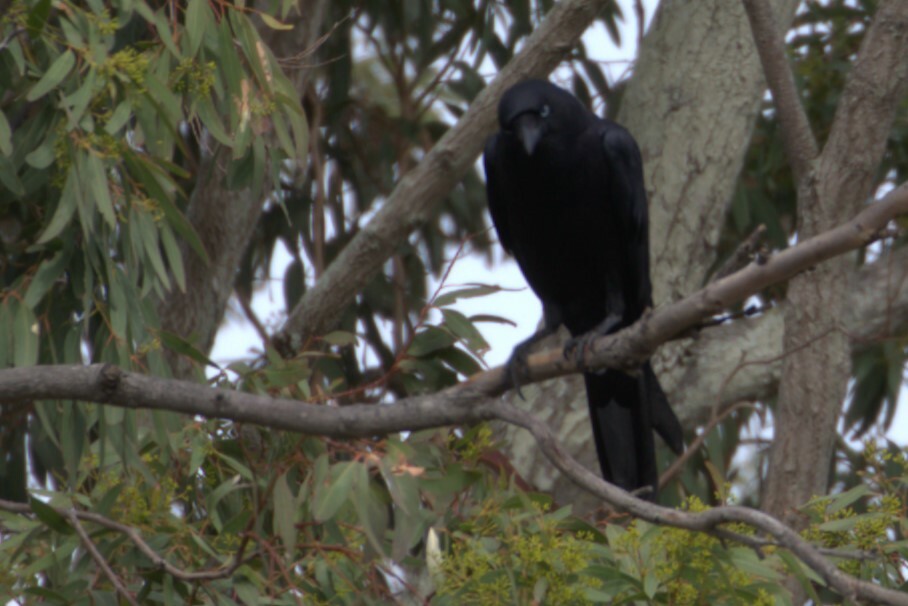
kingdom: Animalia
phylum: Chordata
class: Aves
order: Passeriformes
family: Corvidae
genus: Corvus
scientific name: Corvus orru
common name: Torresian crow
